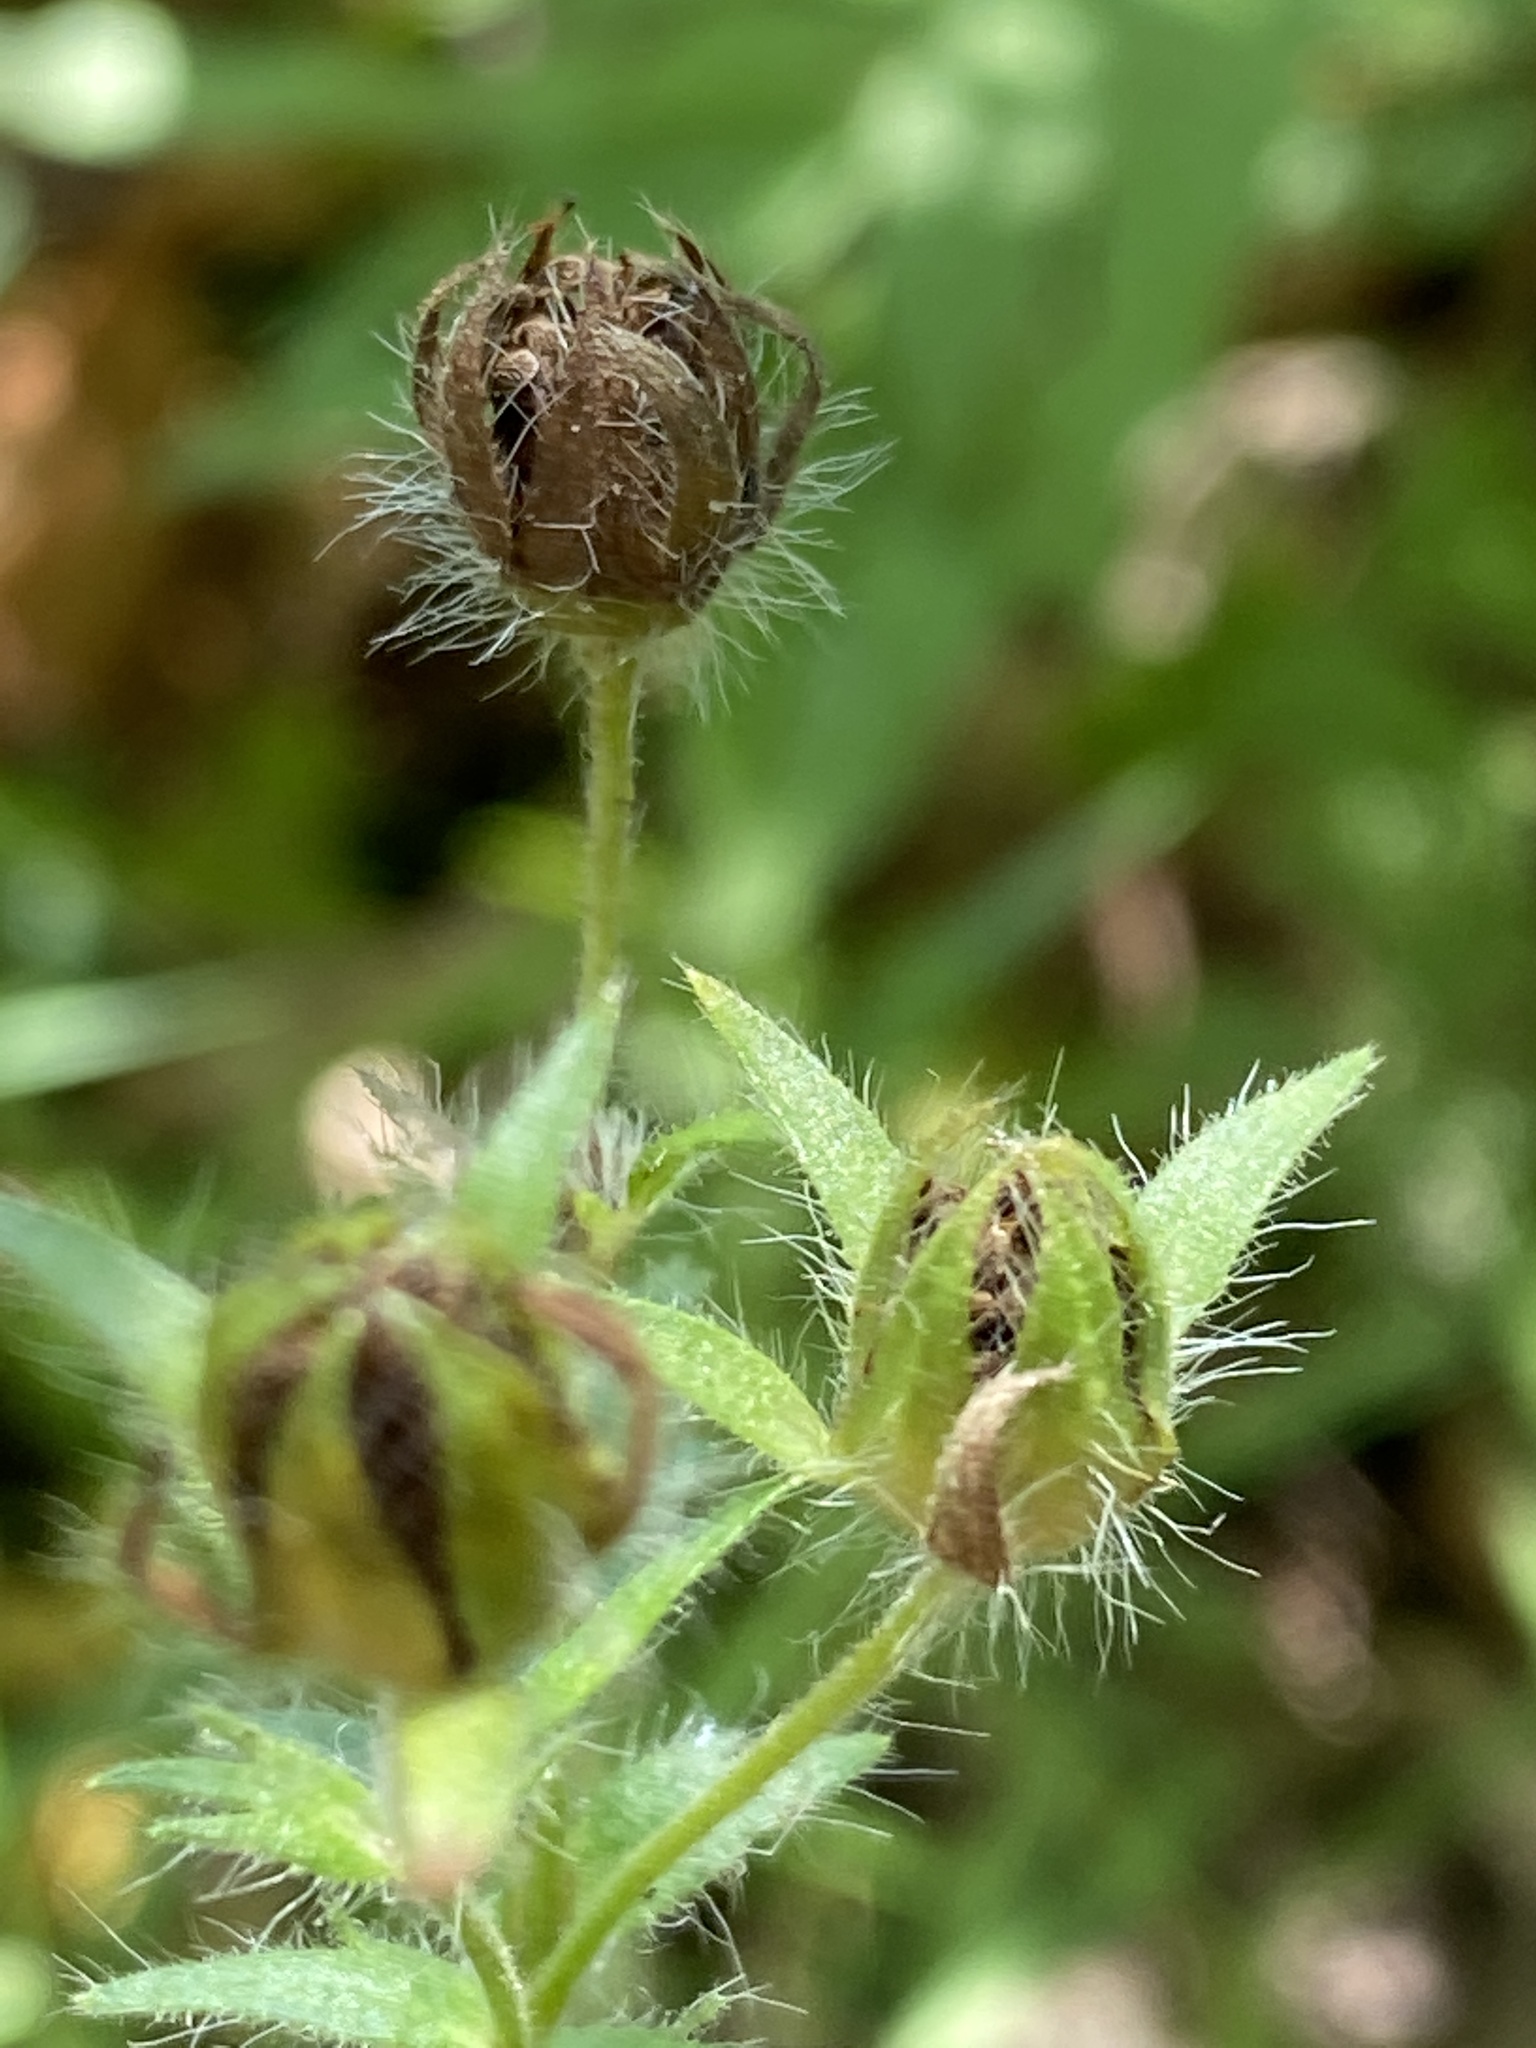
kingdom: Plantae
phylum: Tracheophyta
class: Magnoliopsida
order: Rosales
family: Rosaceae
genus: Potentilla
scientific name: Potentilla recta
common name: Sulphur cinquefoil
